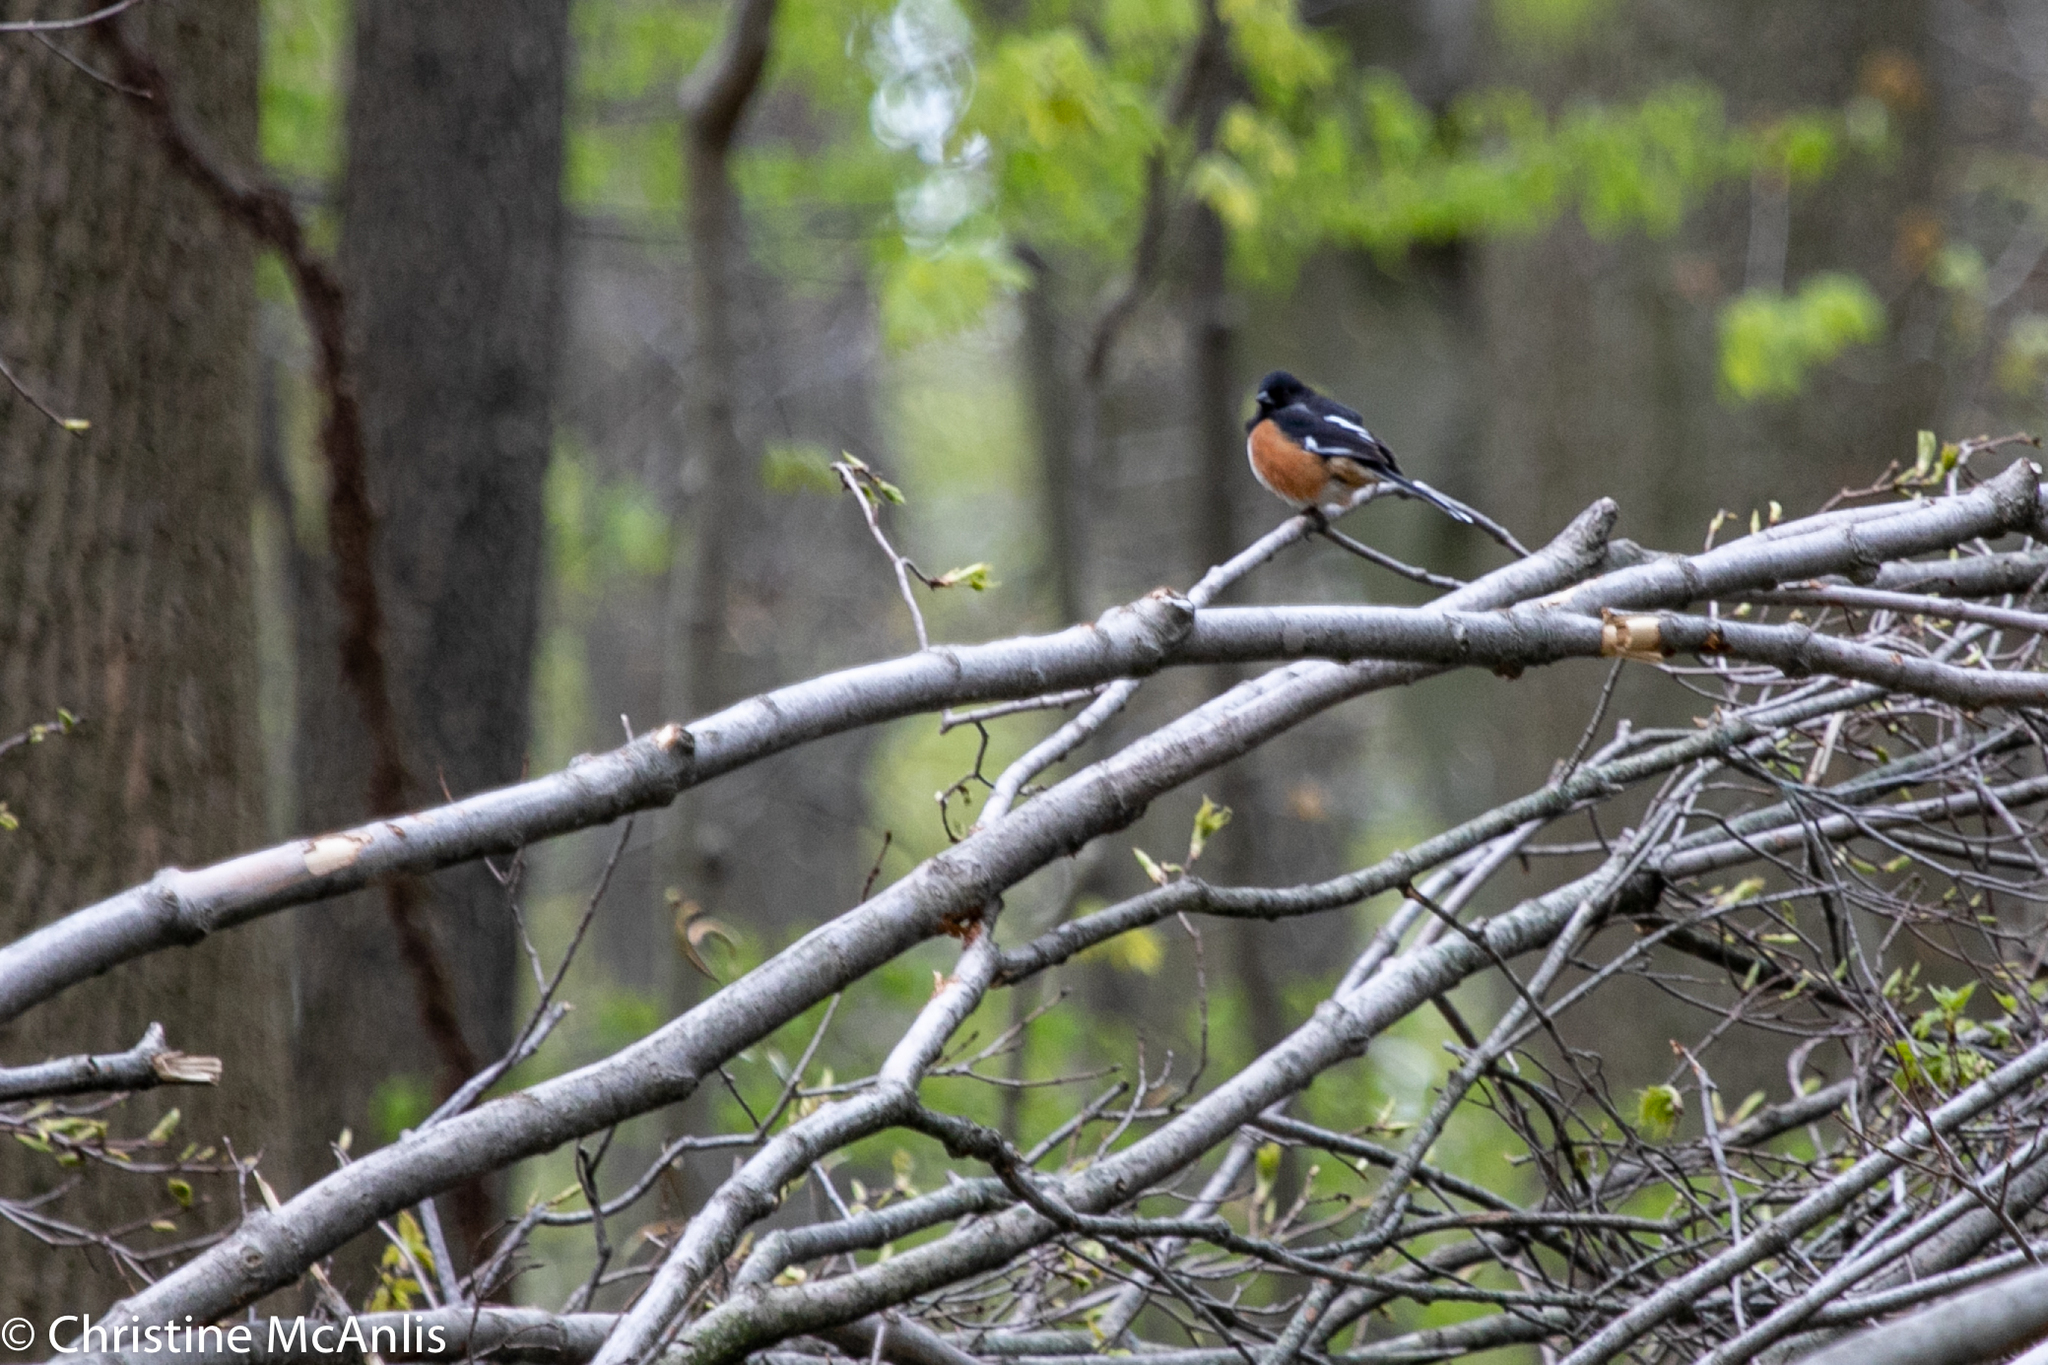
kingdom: Animalia
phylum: Chordata
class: Aves
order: Passeriformes
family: Passerellidae
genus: Pipilo
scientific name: Pipilo erythrophthalmus
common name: Eastern towhee
